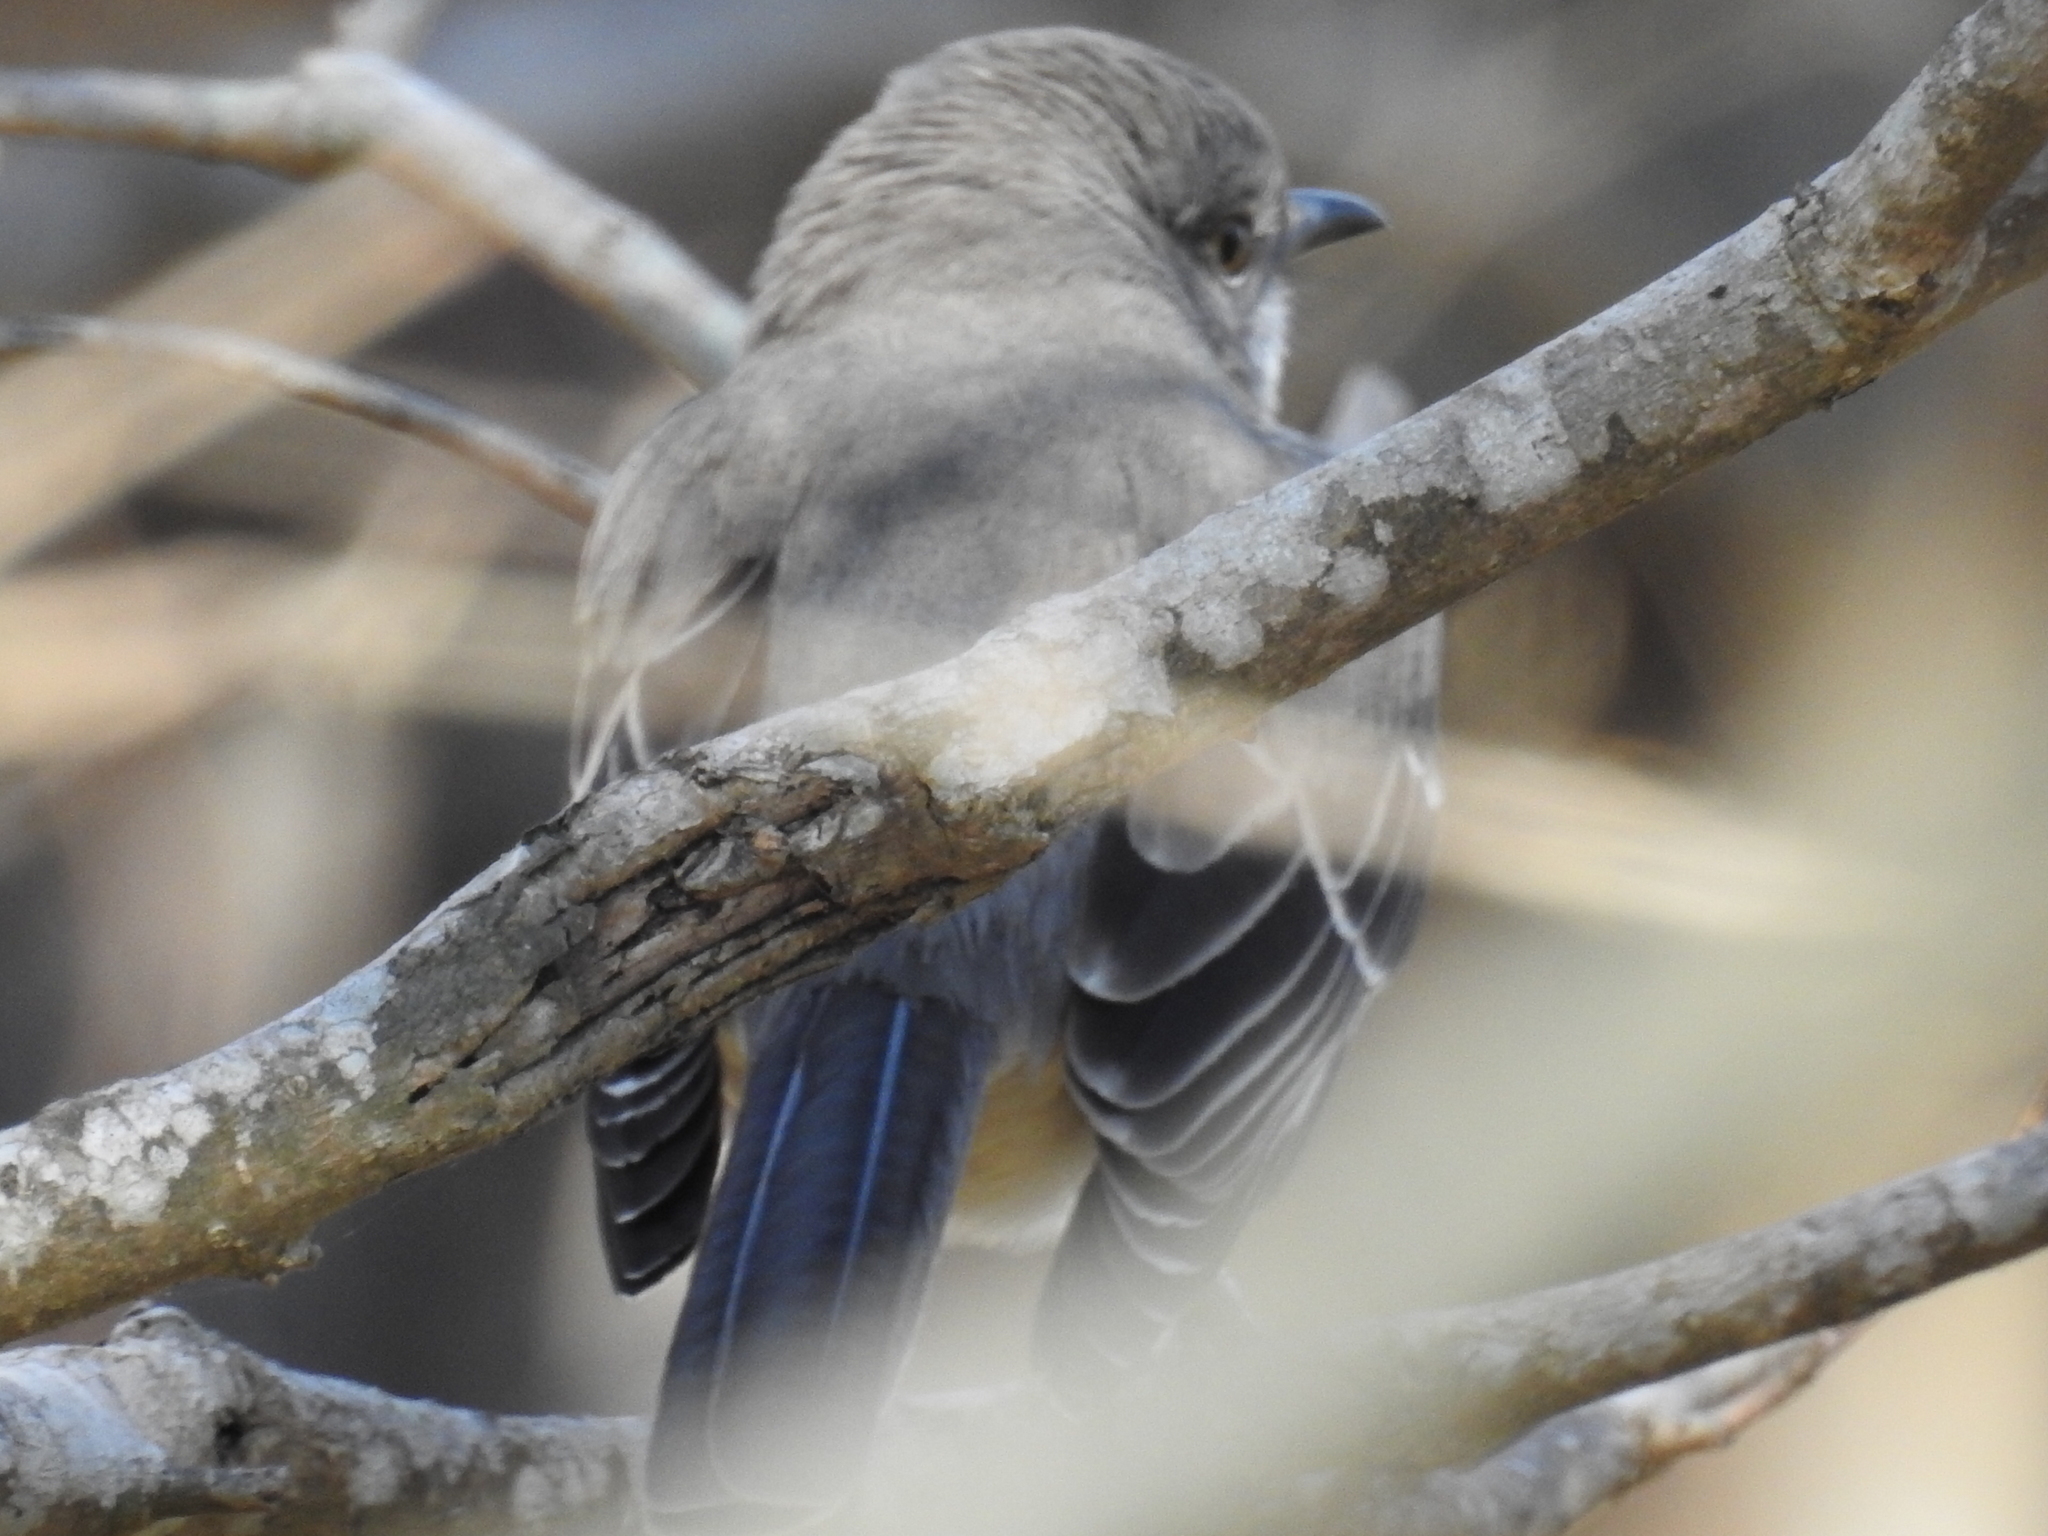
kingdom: Animalia
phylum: Chordata
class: Aves
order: Passeriformes
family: Mimidae
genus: Mimus
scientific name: Mimus polyglottos
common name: Northern mockingbird
